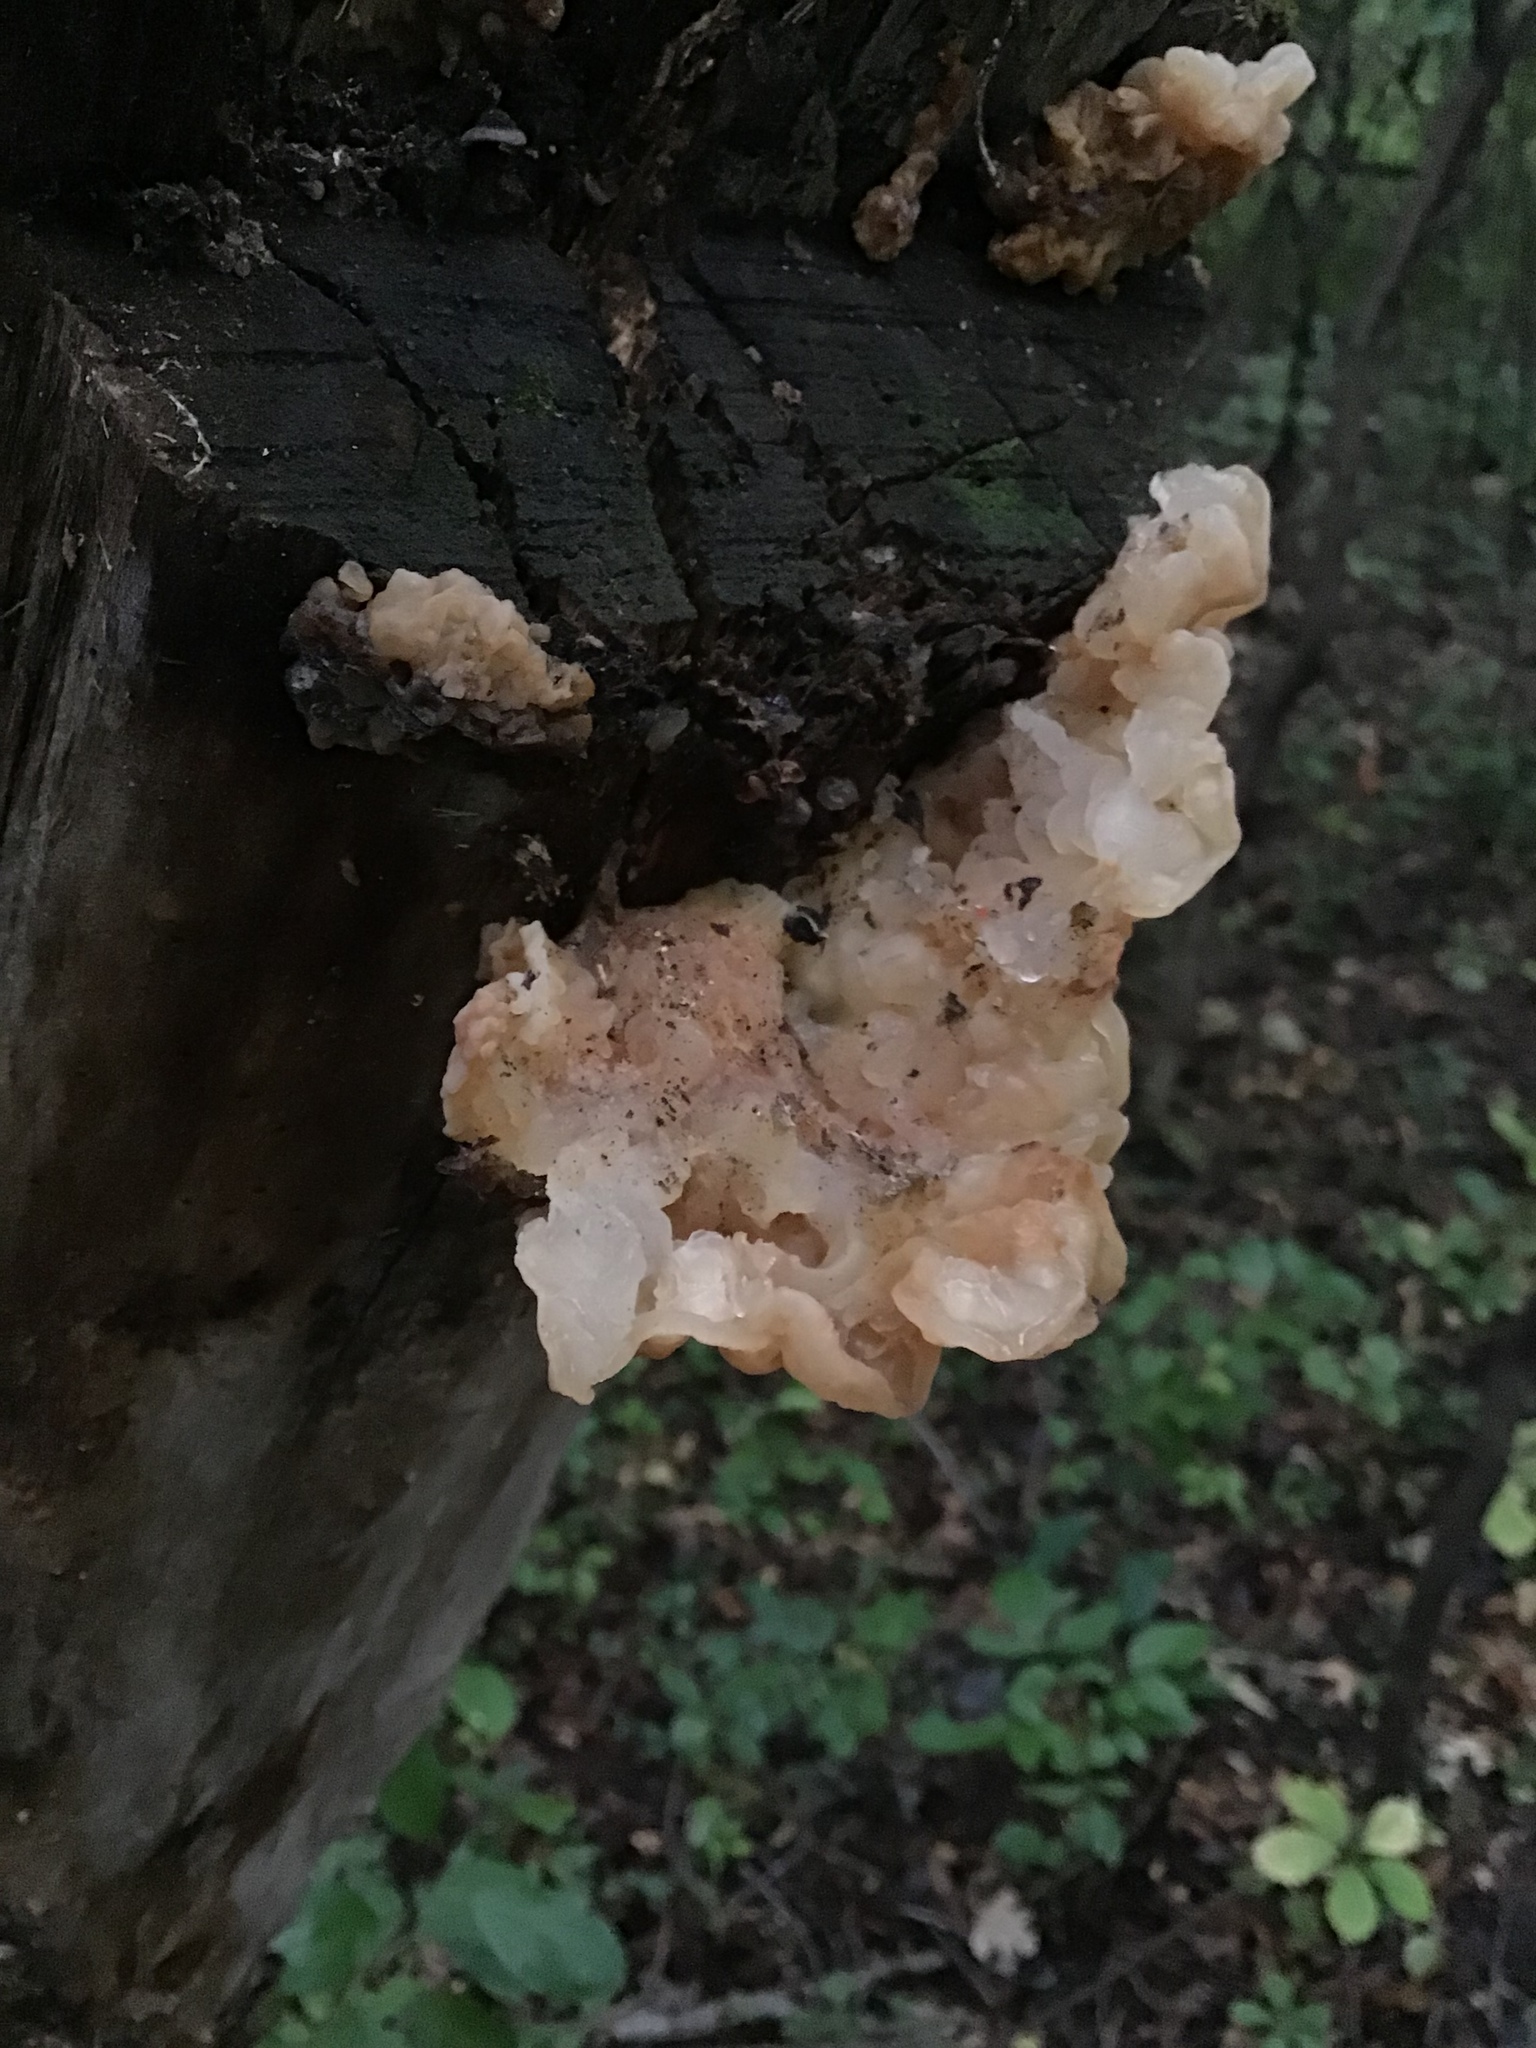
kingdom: Fungi
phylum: Basidiomycota
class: Agaricomycetes
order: Auriculariales
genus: Ductifera
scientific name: Ductifera pululahuana
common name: White jelly fungus
